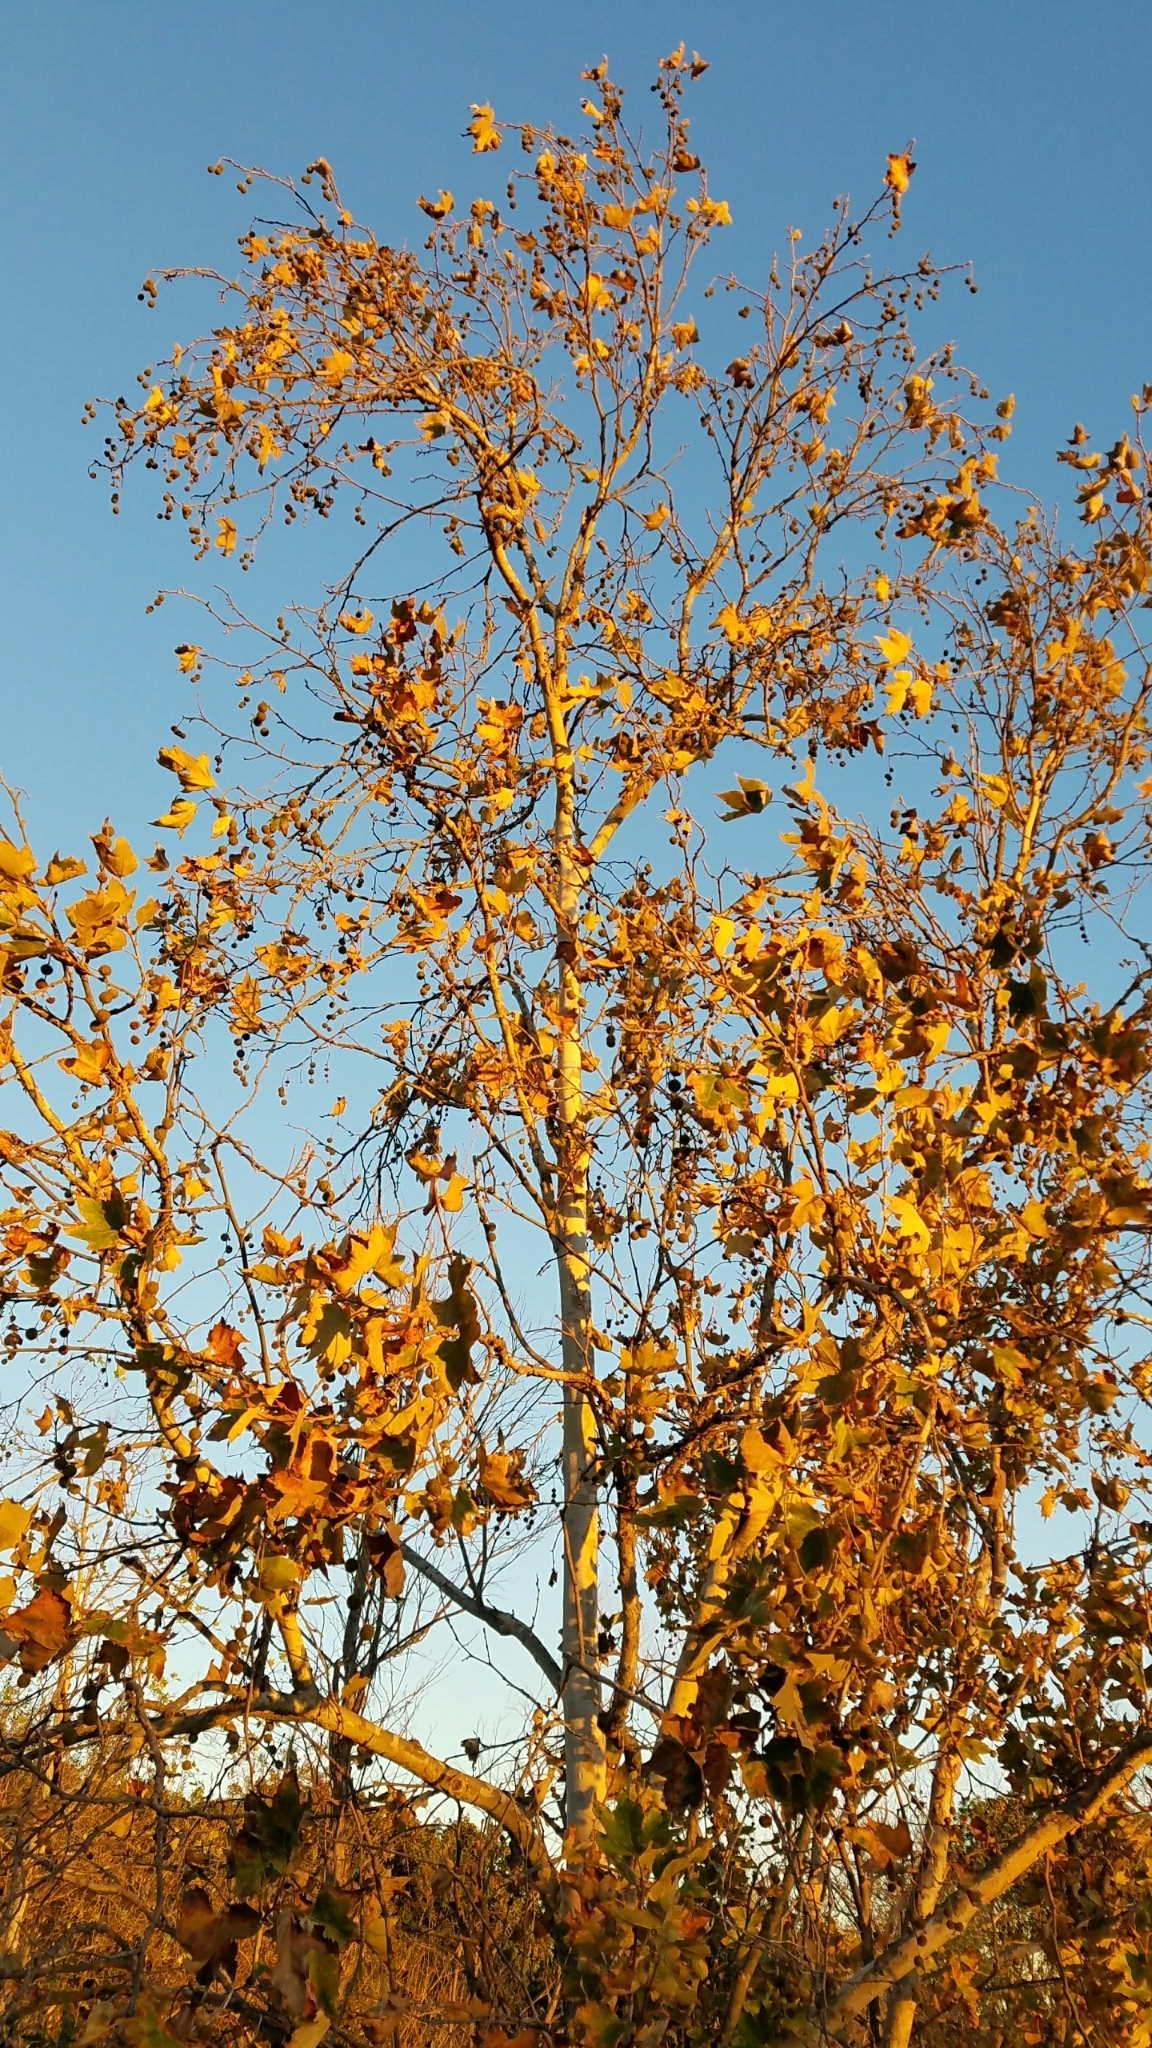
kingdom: Plantae
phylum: Tracheophyta
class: Magnoliopsida
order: Proteales
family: Platanaceae
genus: Platanus
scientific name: Platanus racemosa
